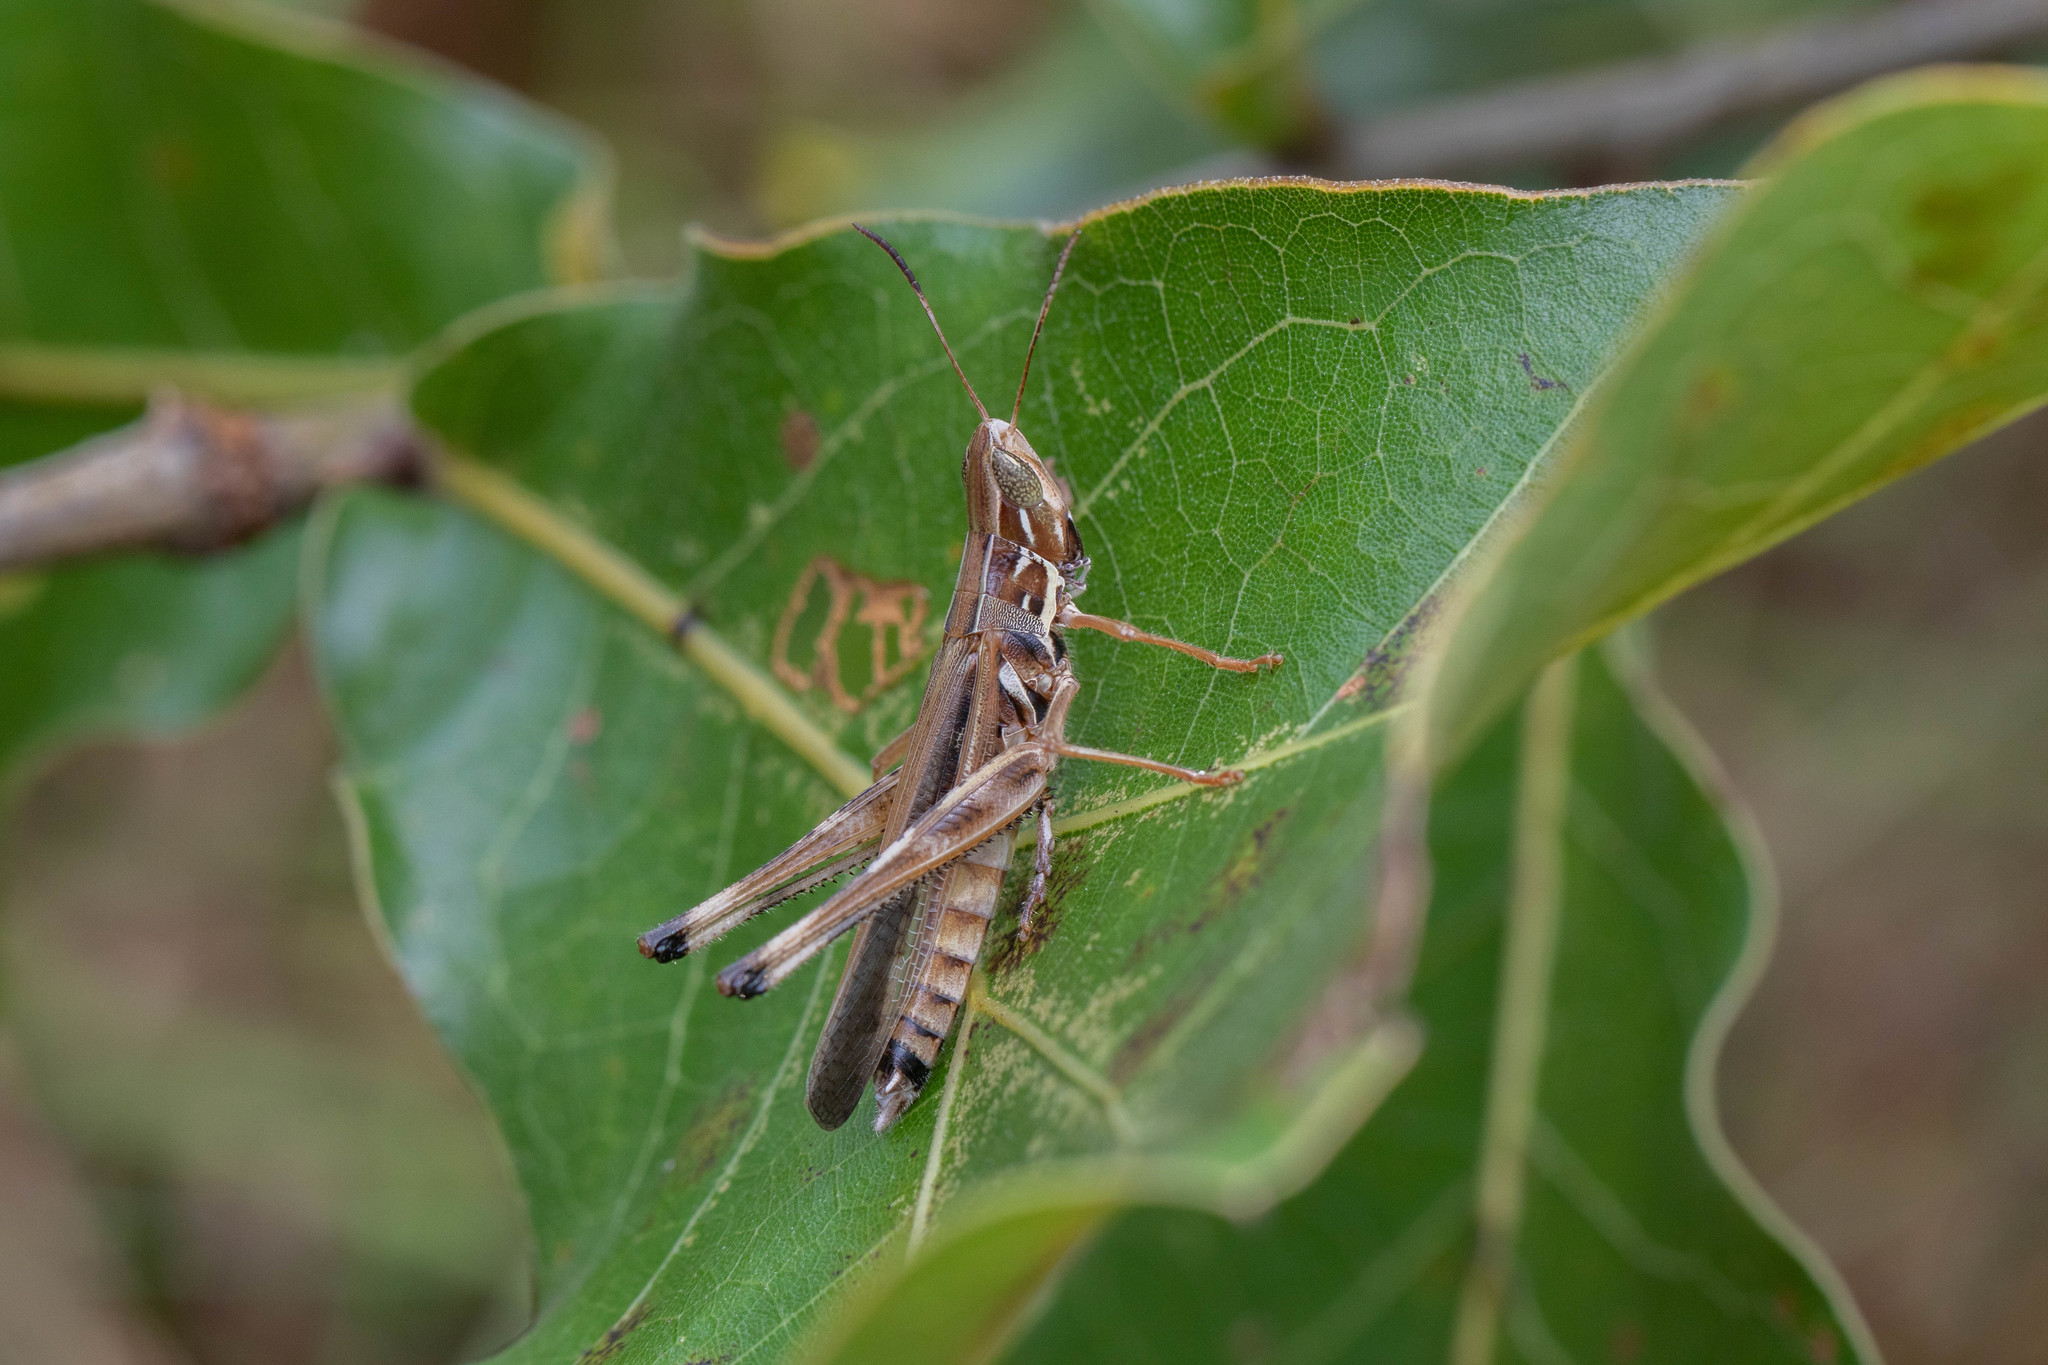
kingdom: Animalia
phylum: Arthropoda
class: Insecta
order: Orthoptera
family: Acrididae
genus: Syrbula
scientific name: Syrbula admirabilis
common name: Handsome grasshopper
